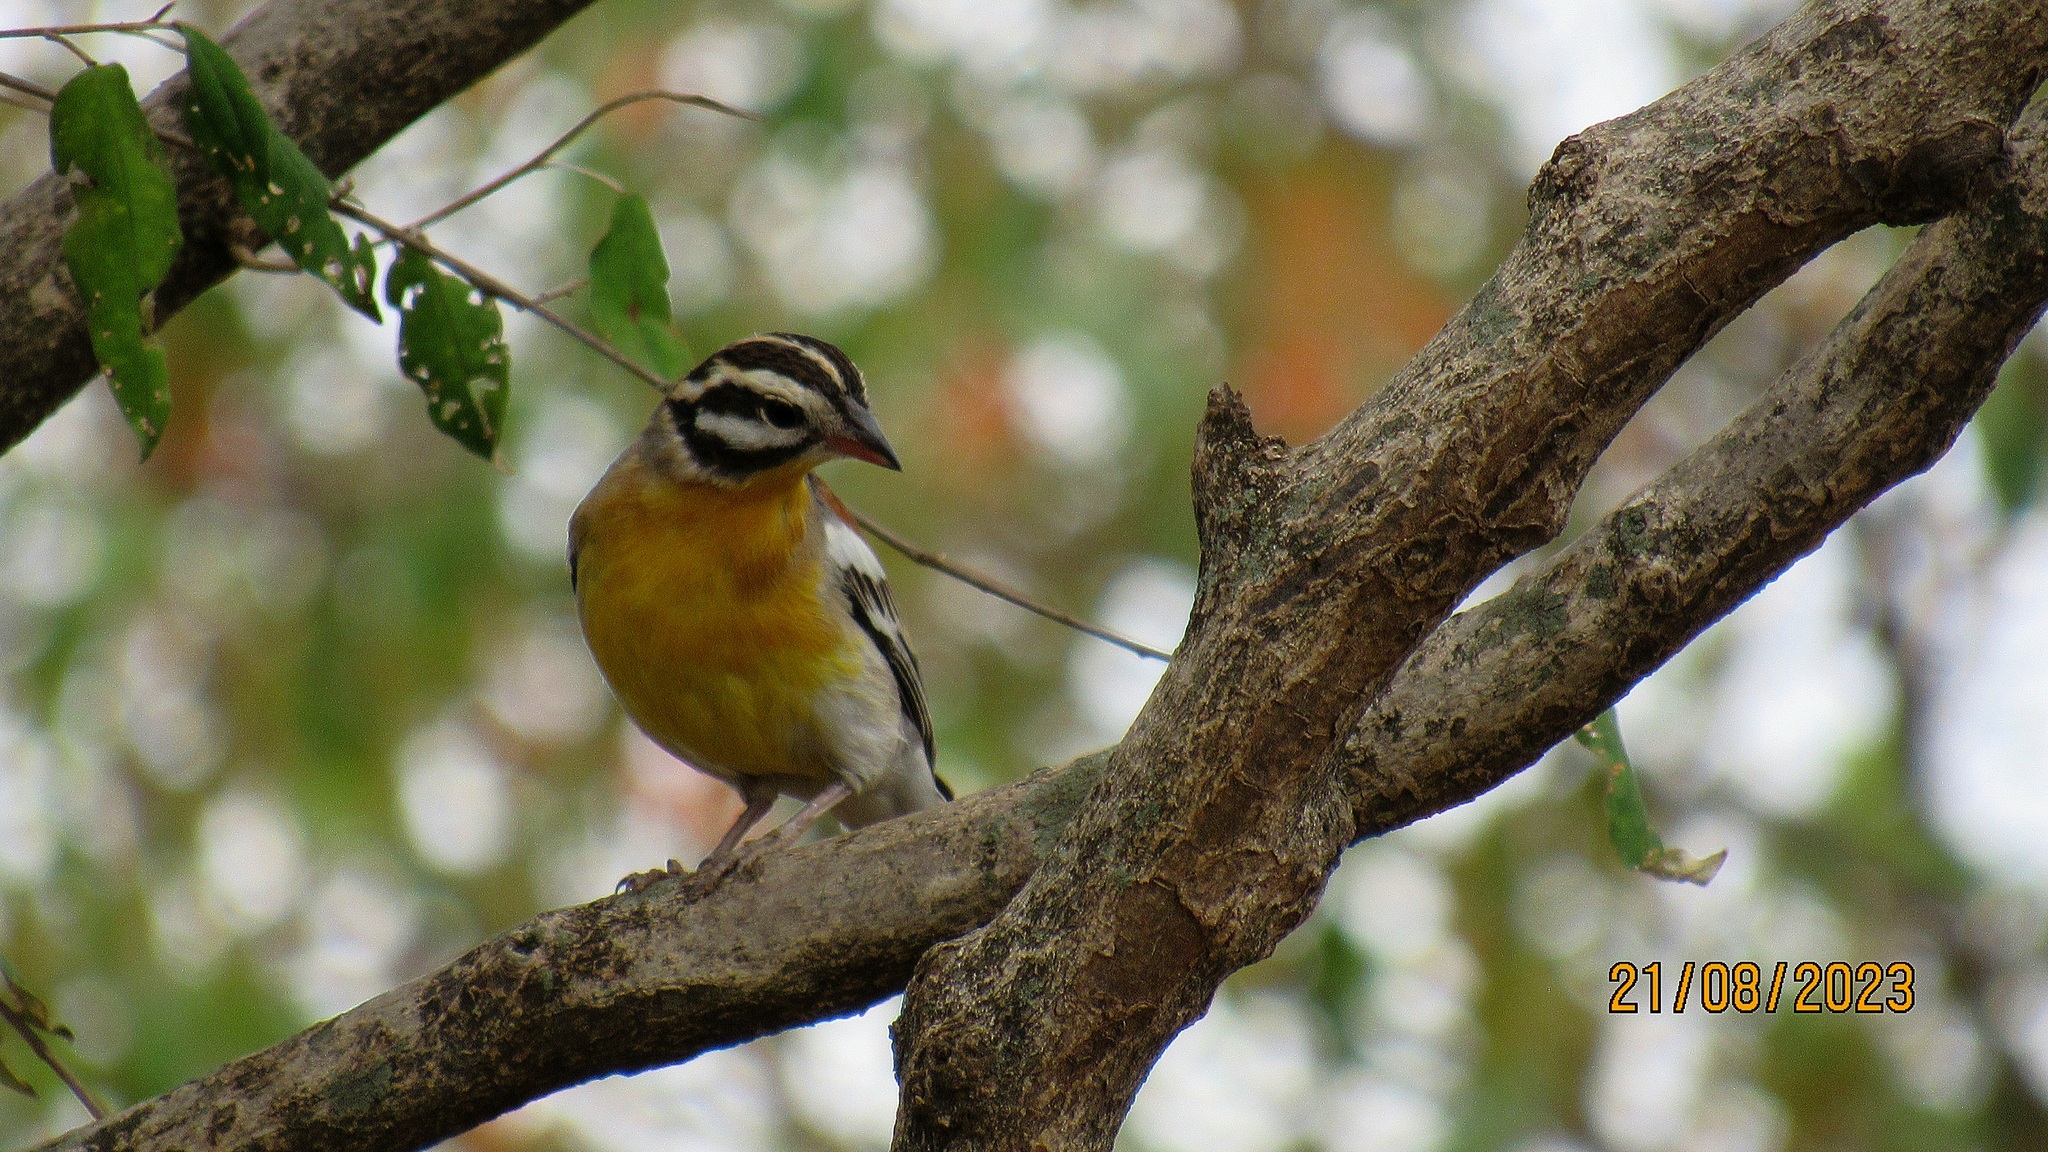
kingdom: Animalia
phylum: Chordata
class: Aves
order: Passeriformes
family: Emberizidae
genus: Emberiza
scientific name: Emberiza flaviventris
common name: Golden-breasted bunting
